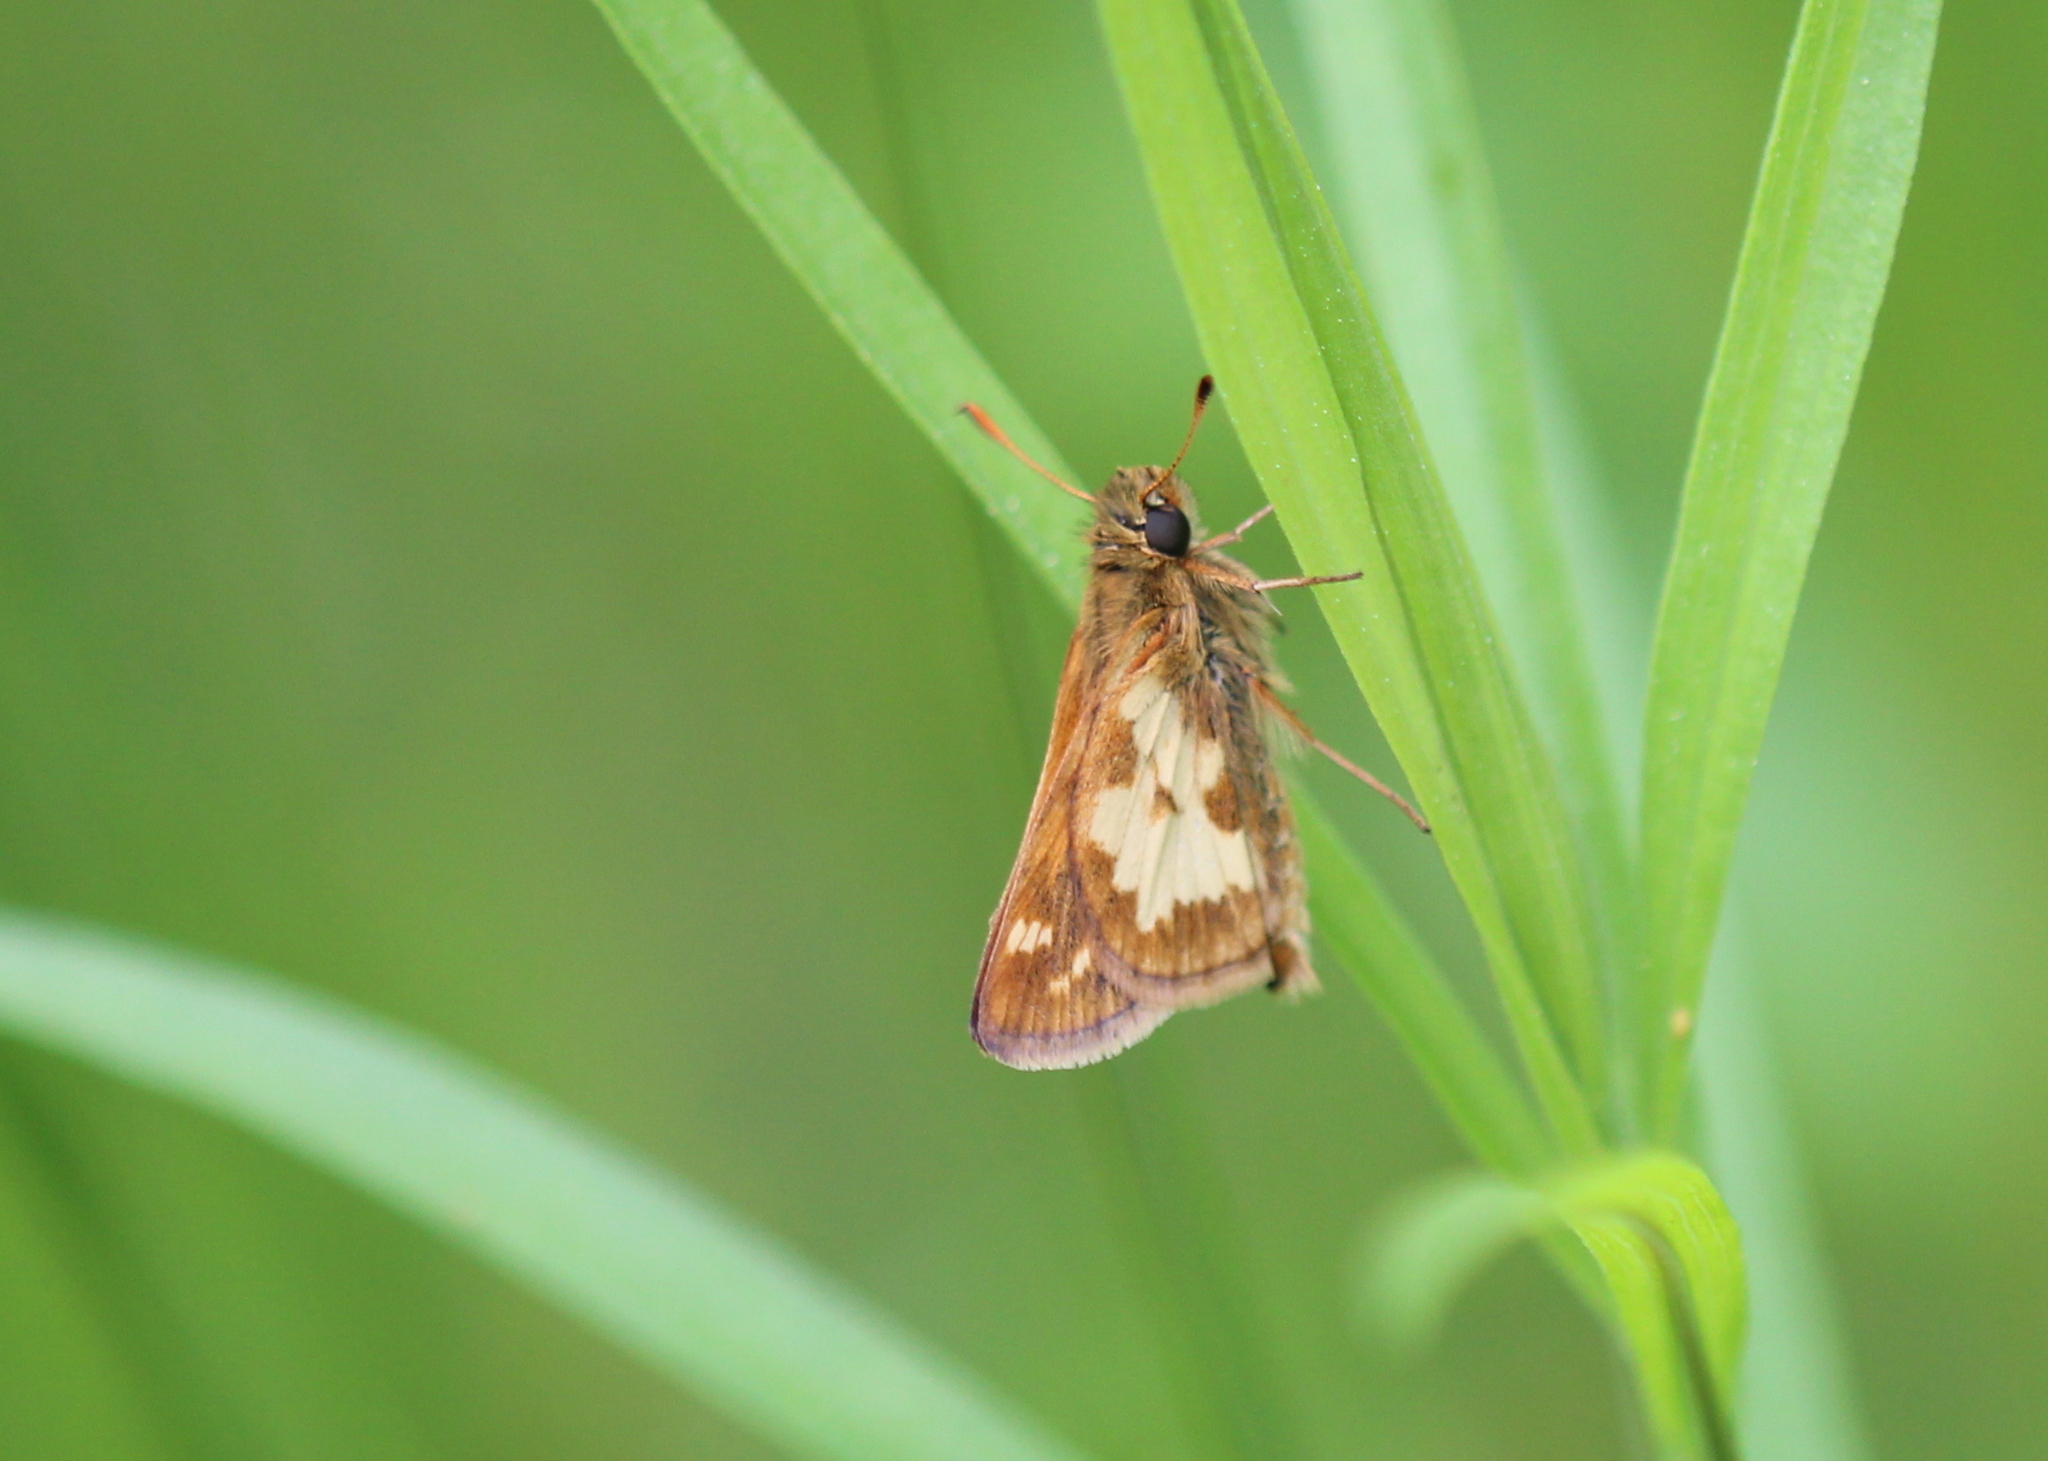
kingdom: Animalia
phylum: Arthropoda
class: Insecta
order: Lepidoptera
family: Hesperiidae
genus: Polites
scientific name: Polites coras
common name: Peck's skipper
